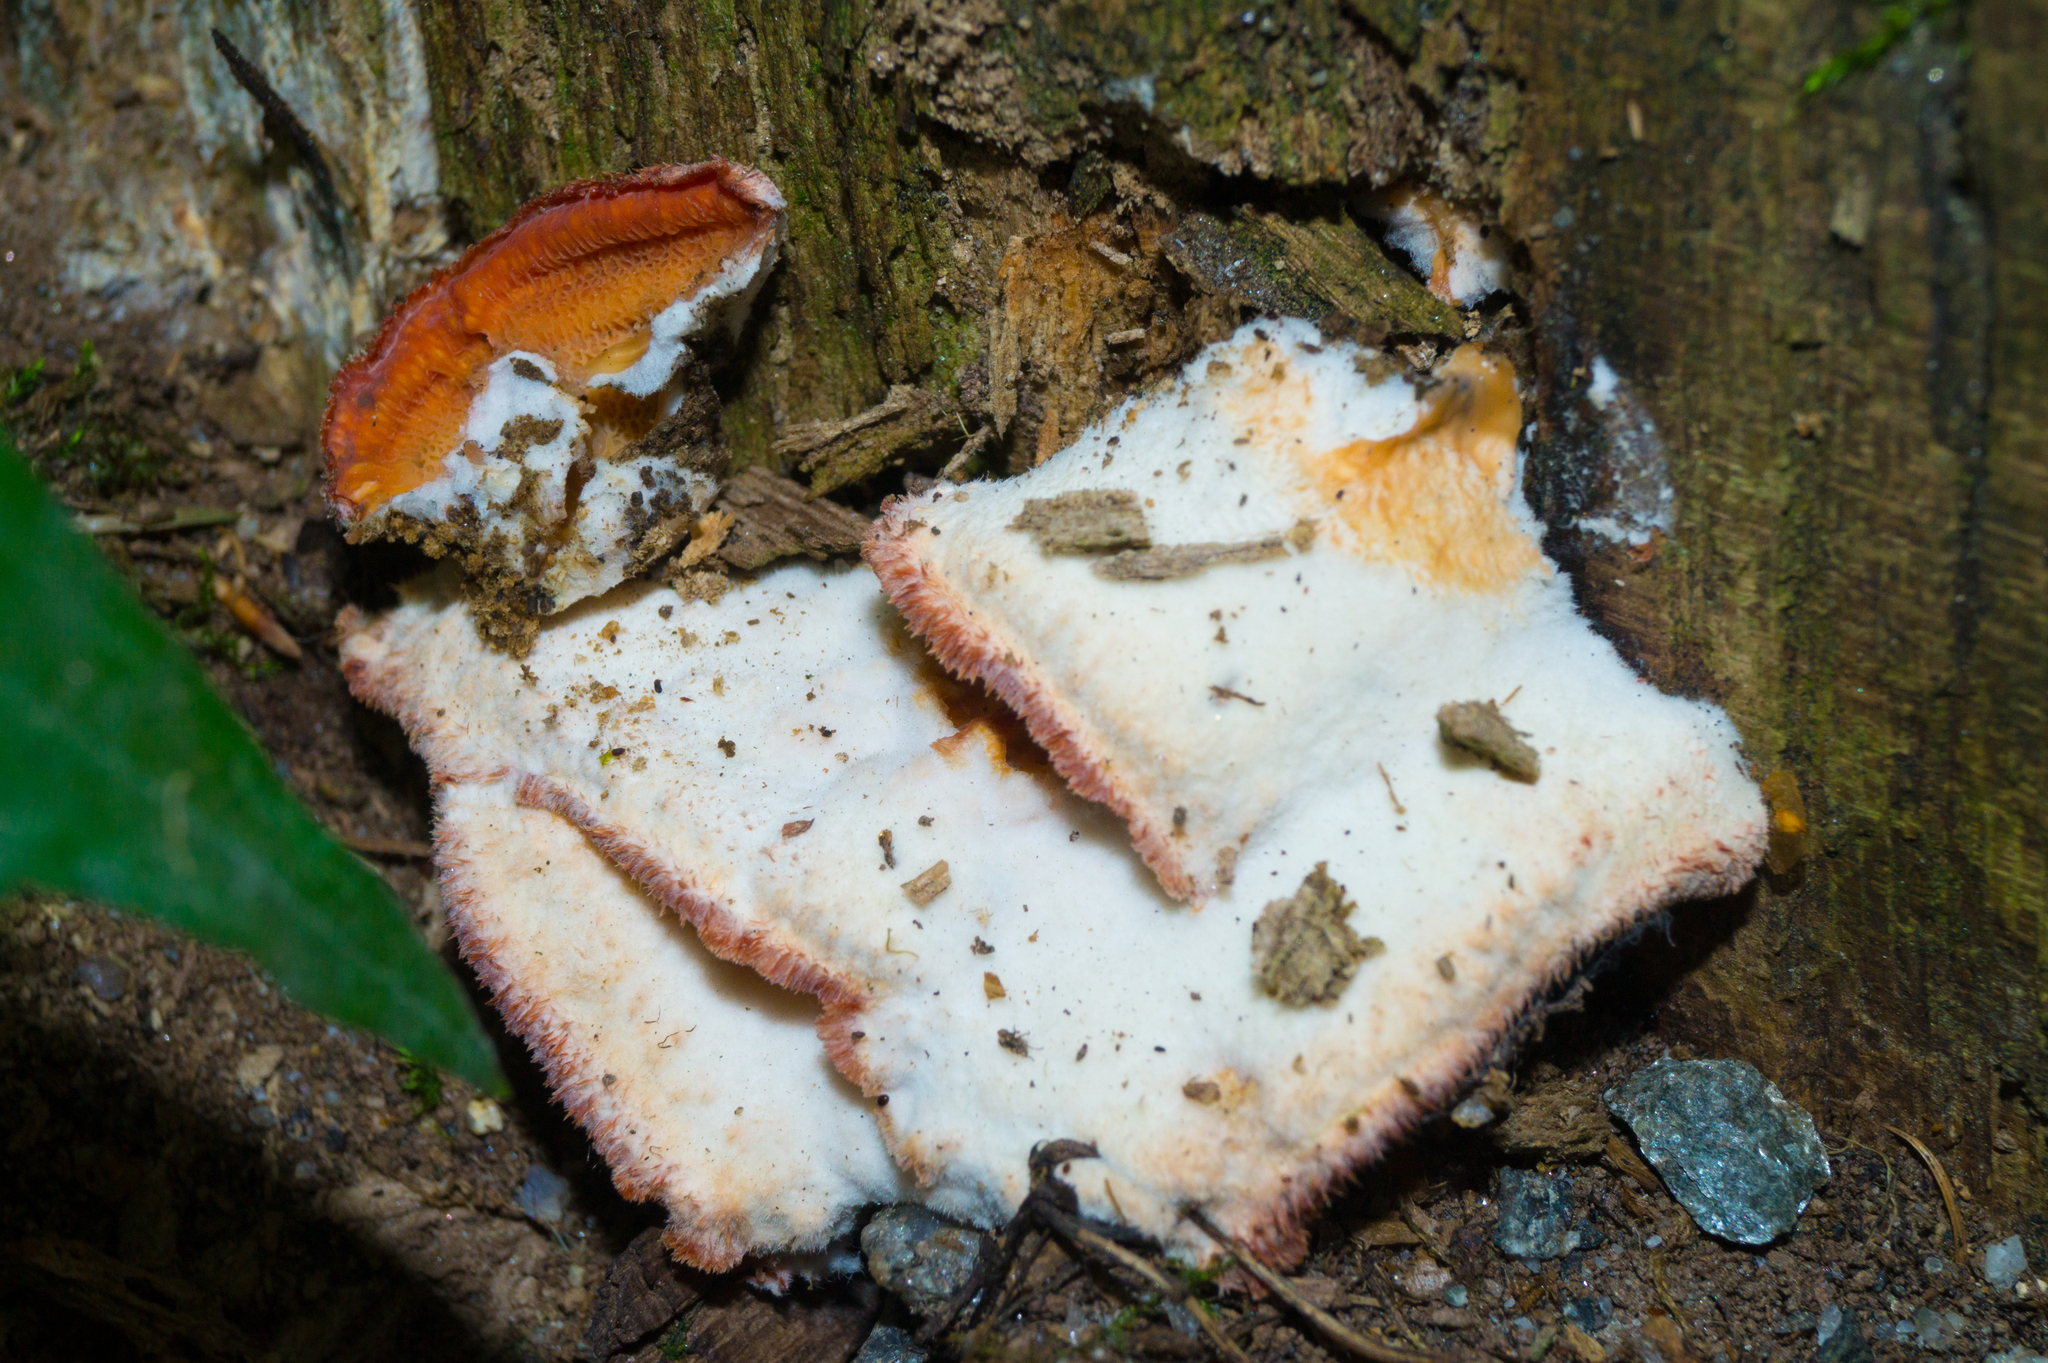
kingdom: Fungi
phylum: Basidiomycota
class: Agaricomycetes
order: Polyporales
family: Meruliaceae
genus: Phlebia
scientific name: Phlebia tremellosa
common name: Jelly rot
